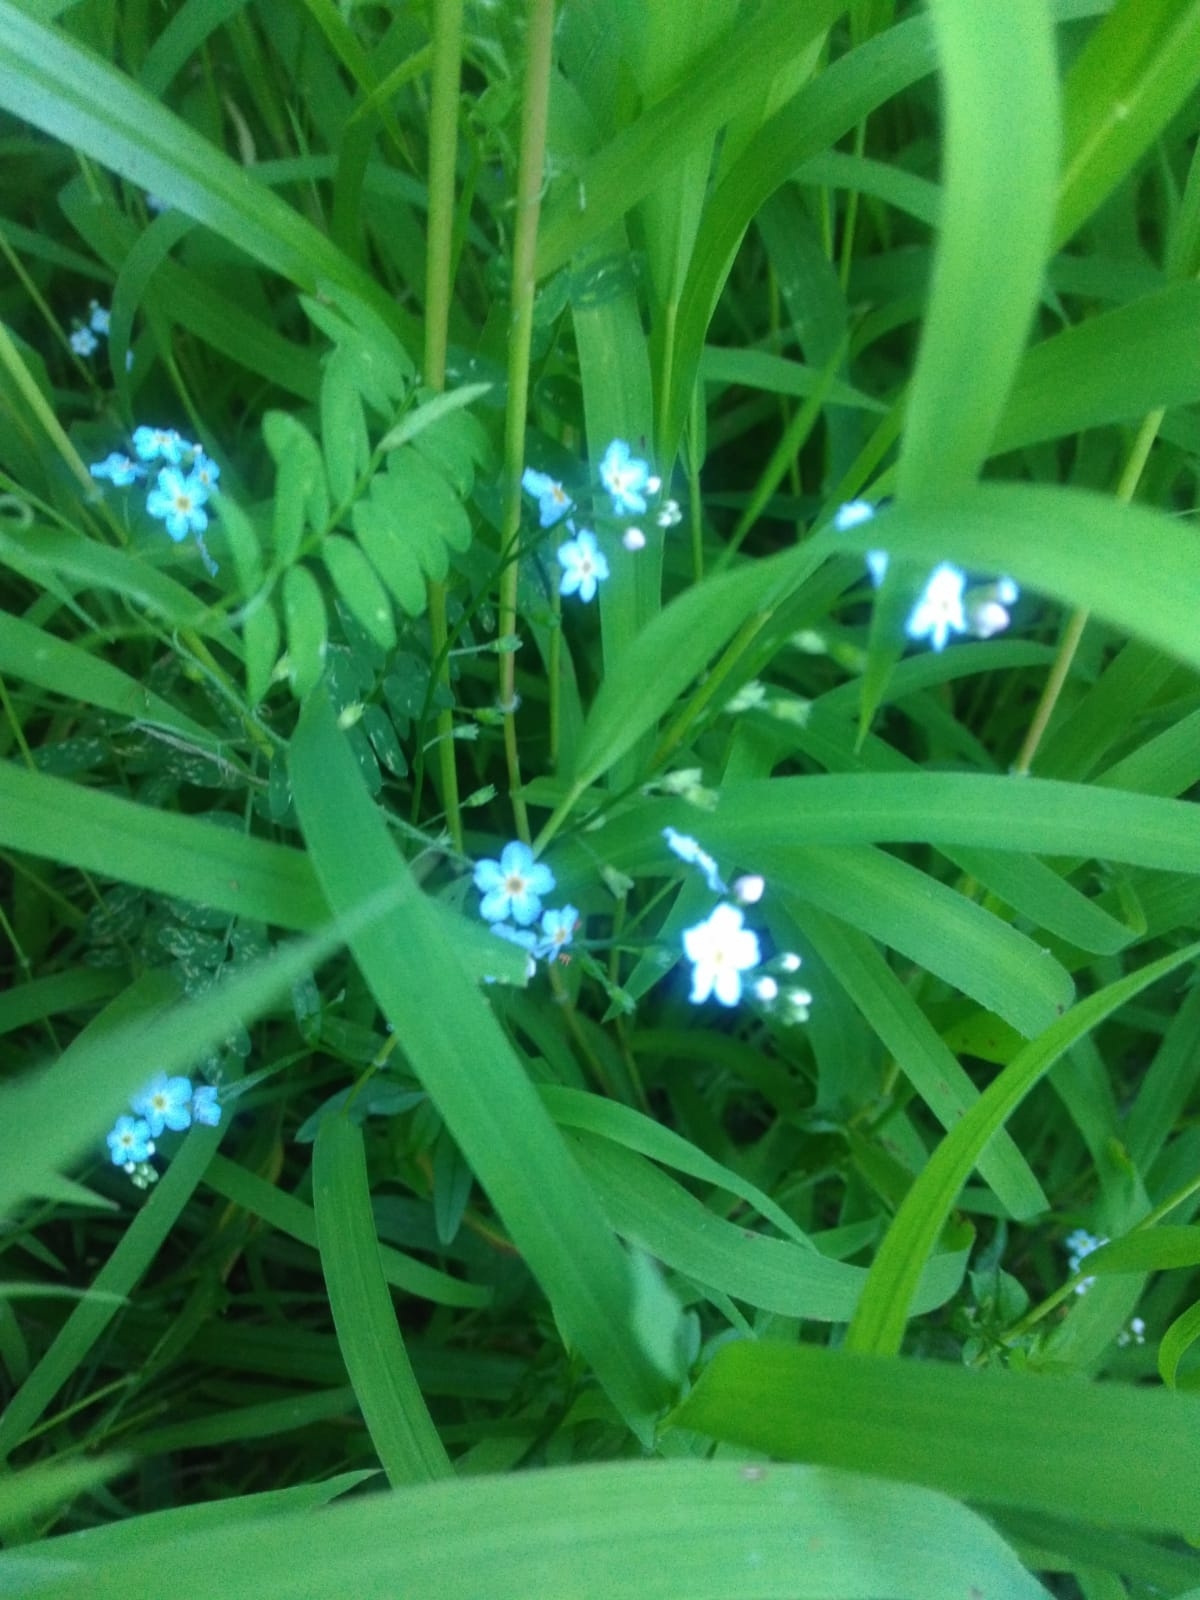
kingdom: Plantae
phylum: Tracheophyta
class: Magnoliopsida
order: Boraginales
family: Boraginaceae
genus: Myosotis
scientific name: Myosotis scorpioides
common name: Water forget-me-not
